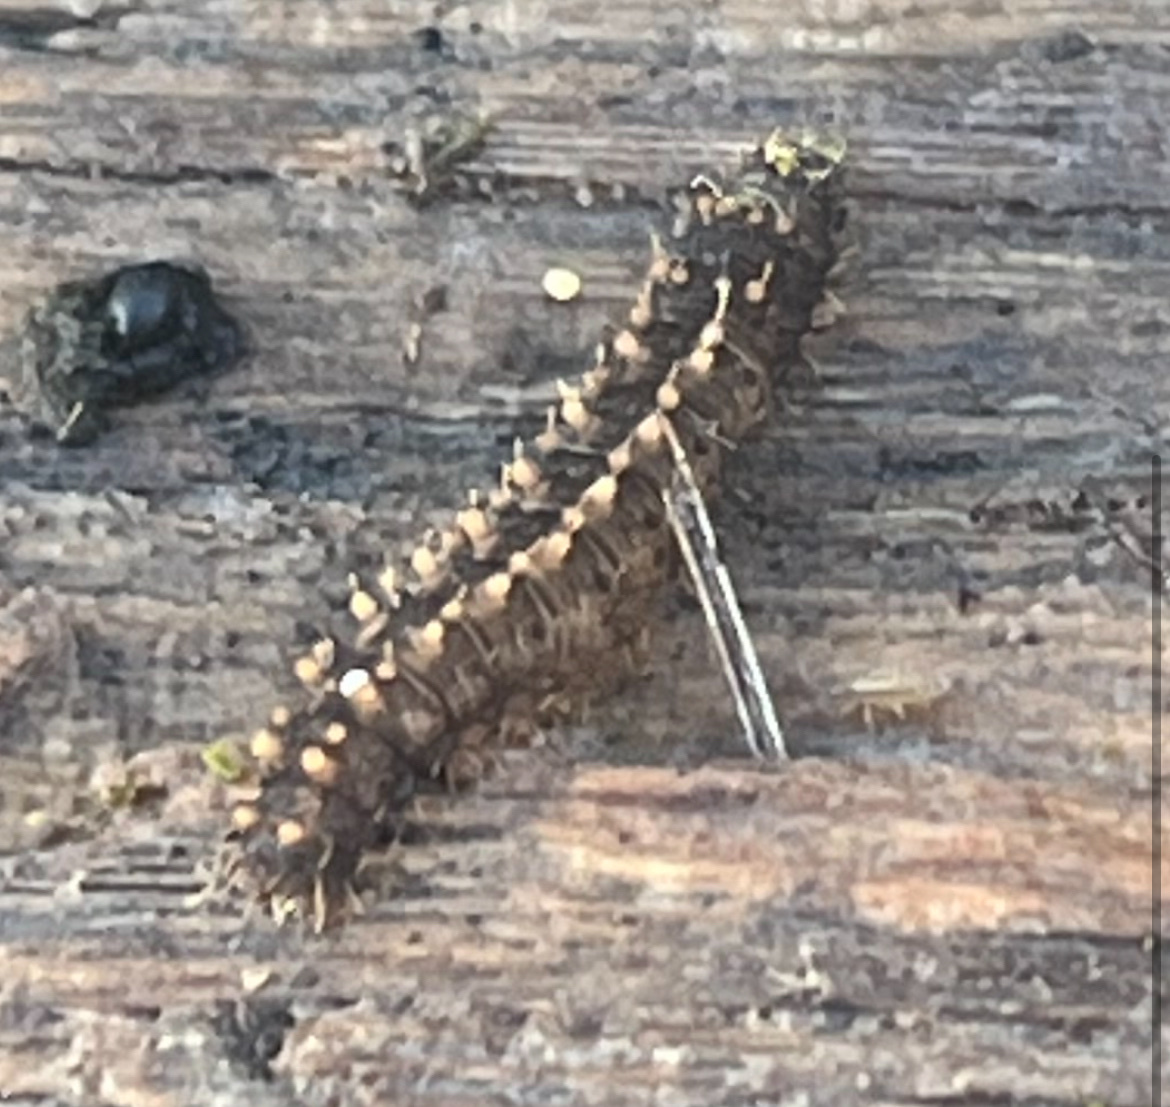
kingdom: Animalia
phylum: Arthropoda
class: Insecta
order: Lepidoptera
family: Erebidae
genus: Idia
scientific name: Idia lubricalis
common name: Twin-striped tabby
